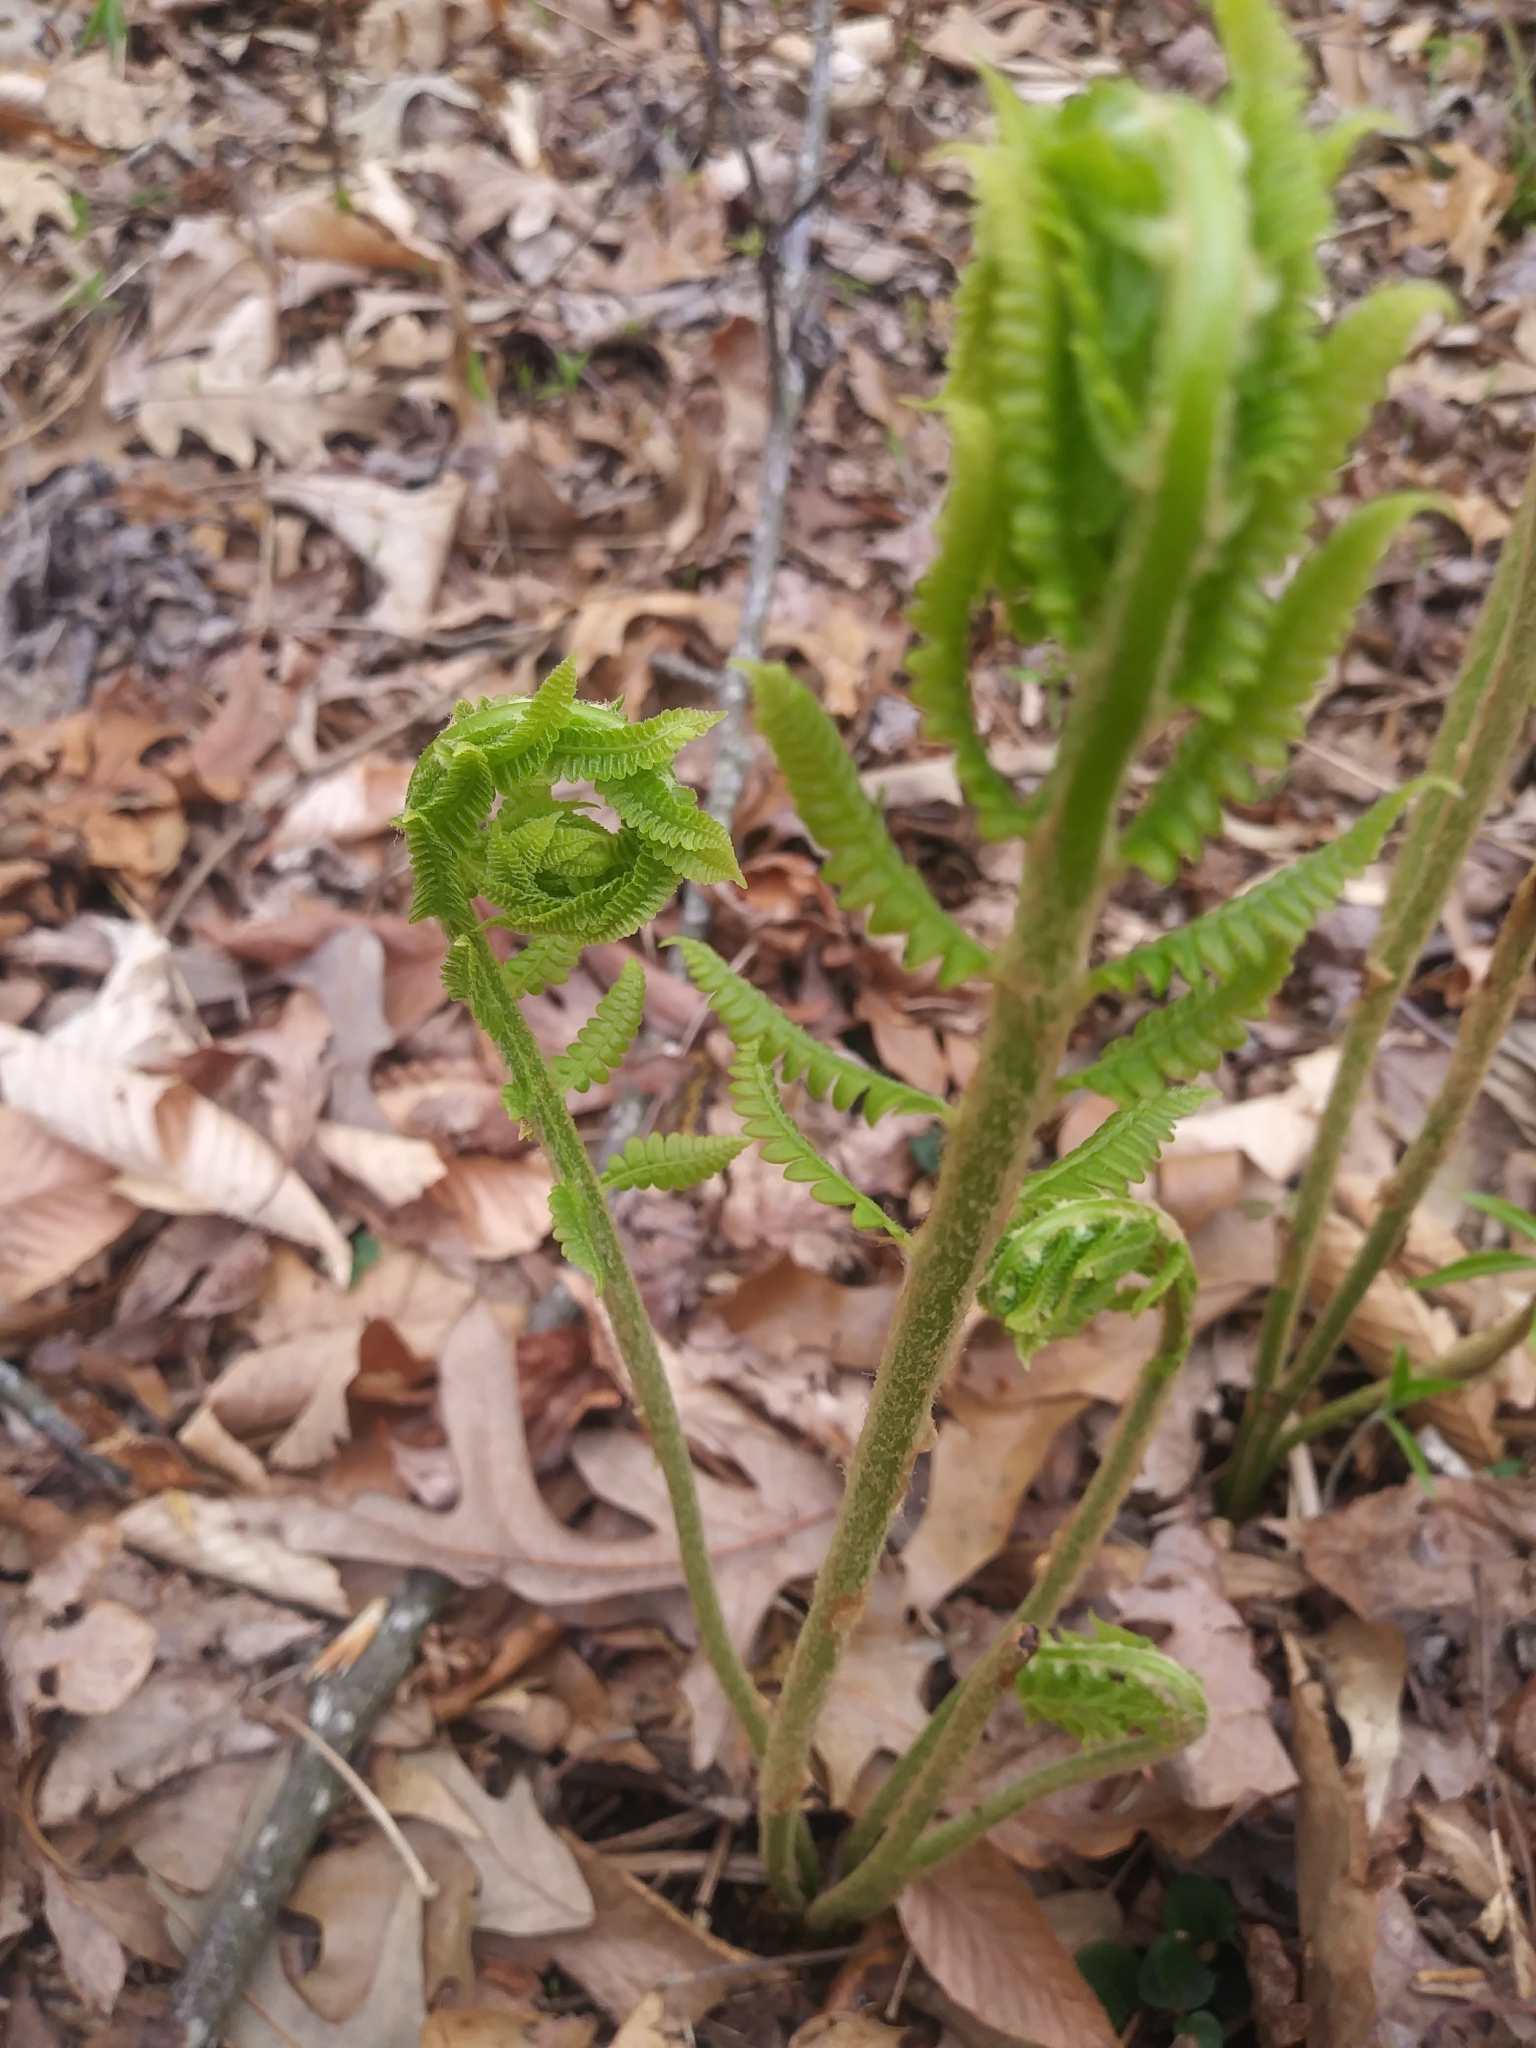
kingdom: Plantae
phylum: Tracheophyta
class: Polypodiopsida
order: Osmundales
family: Osmundaceae
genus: Osmundastrum
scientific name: Osmundastrum cinnamomeum
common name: Cinnamon fern
